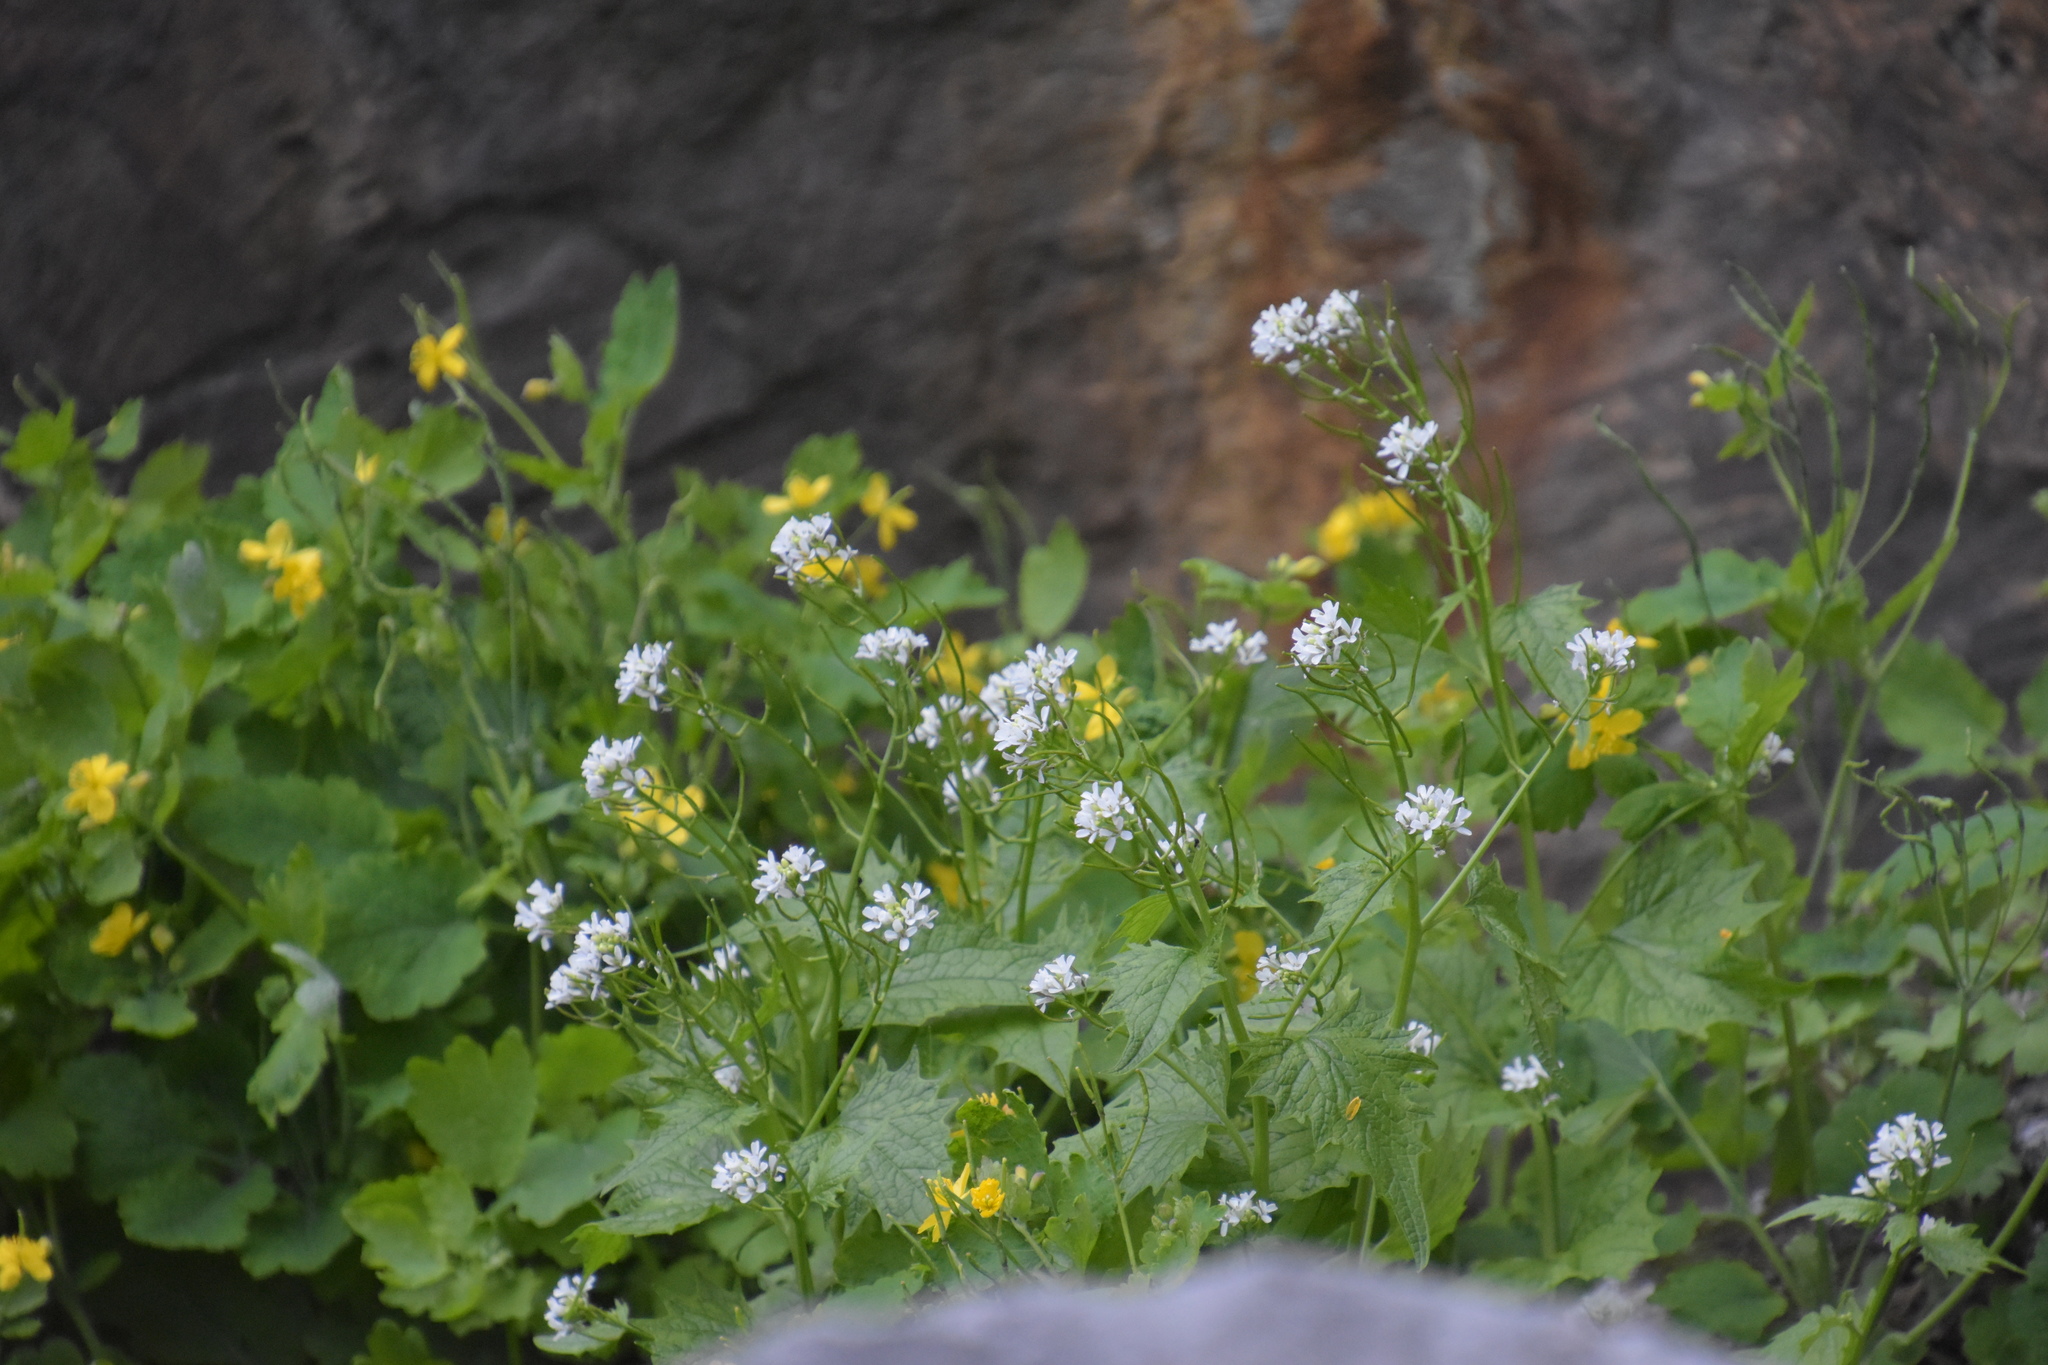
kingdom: Plantae
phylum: Tracheophyta
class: Magnoliopsida
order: Brassicales
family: Brassicaceae
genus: Alliaria
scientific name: Alliaria petiolata
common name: Garlic mustard
